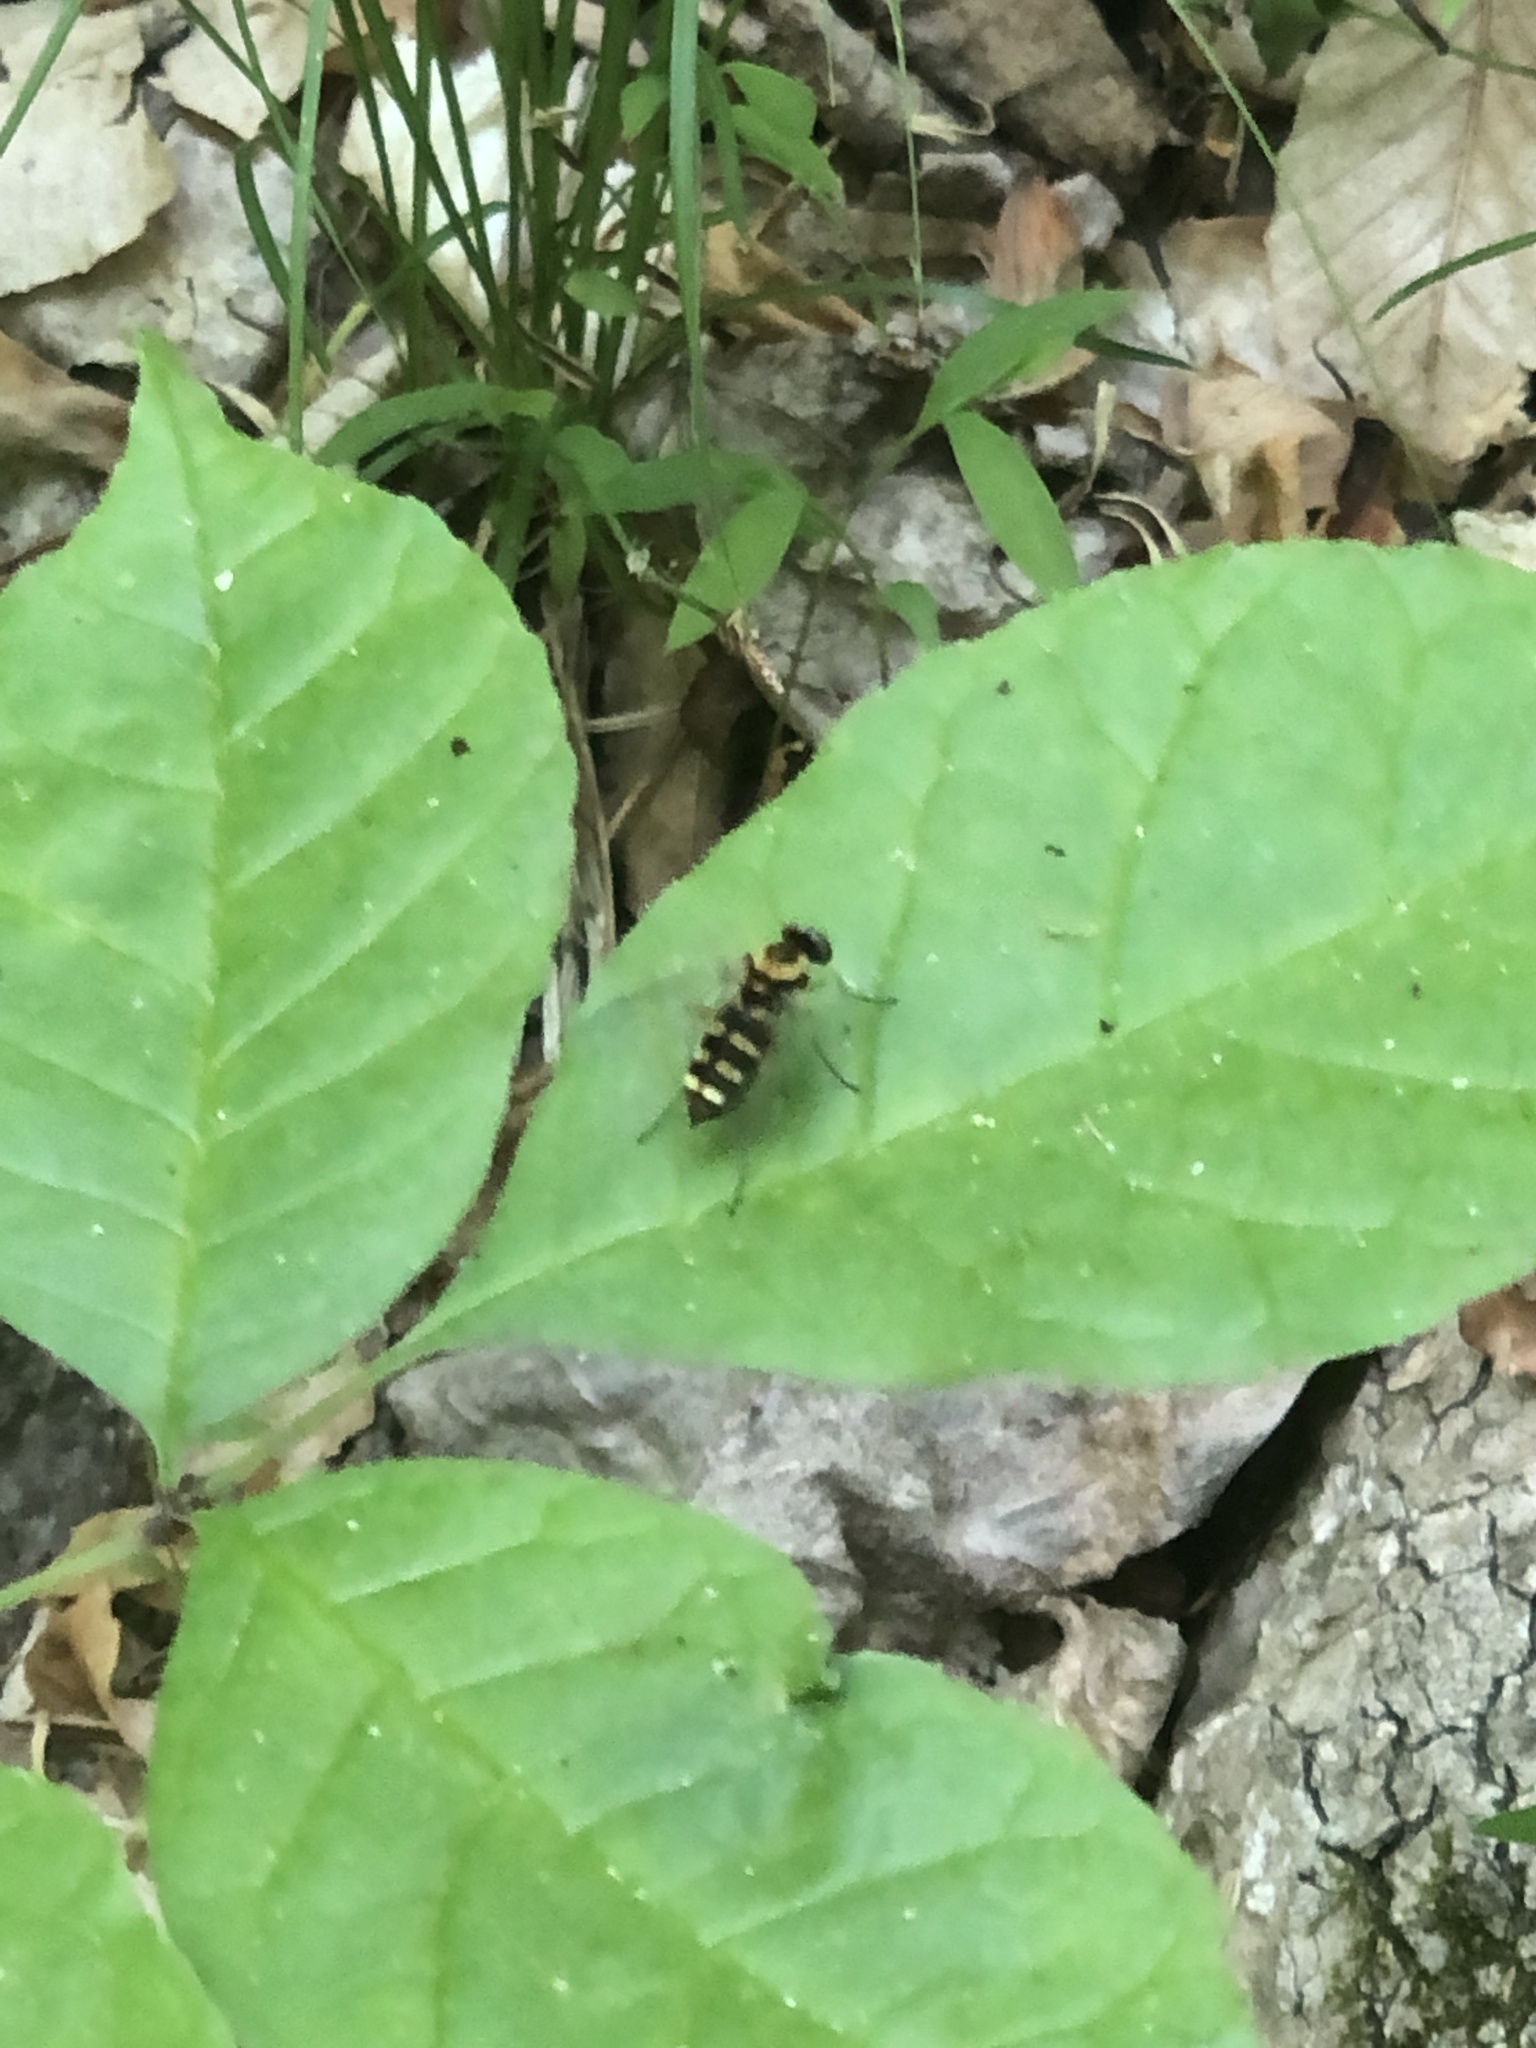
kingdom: Animalia
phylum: Arthropoda
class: Insecta
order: Diptera
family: Rhagionidae
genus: Chrysopilus
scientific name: Chrysopilus ornatus
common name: Ornate snipe fly
